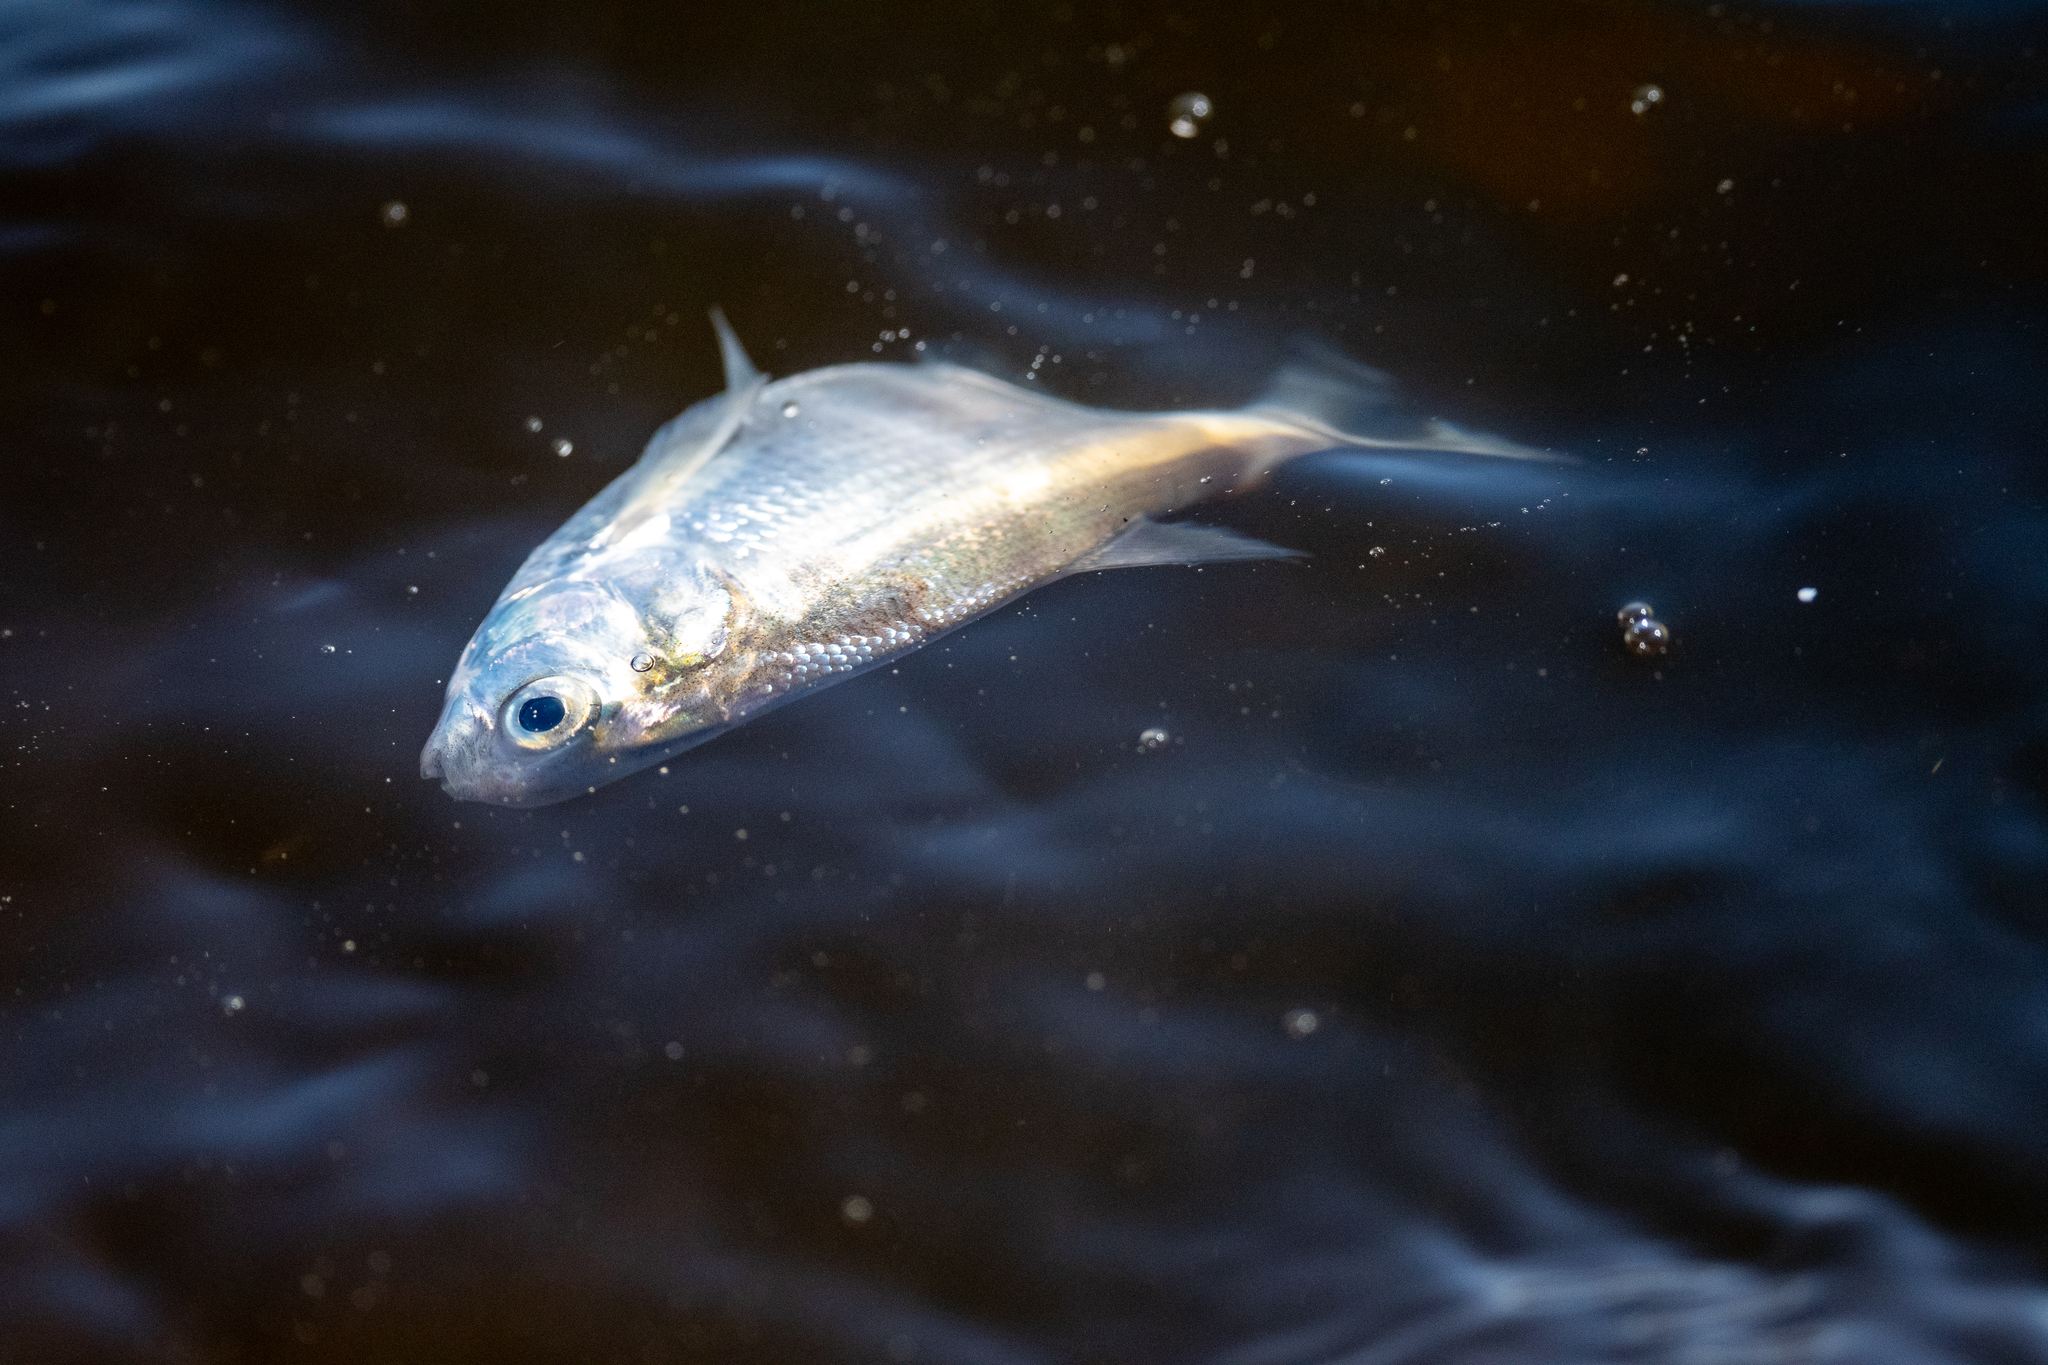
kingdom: Animalia
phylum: Chordata
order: Clupeiformes
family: Clupeidae
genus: Dorosoma
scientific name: Dorosoma cepedianum
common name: Gizzard shad
